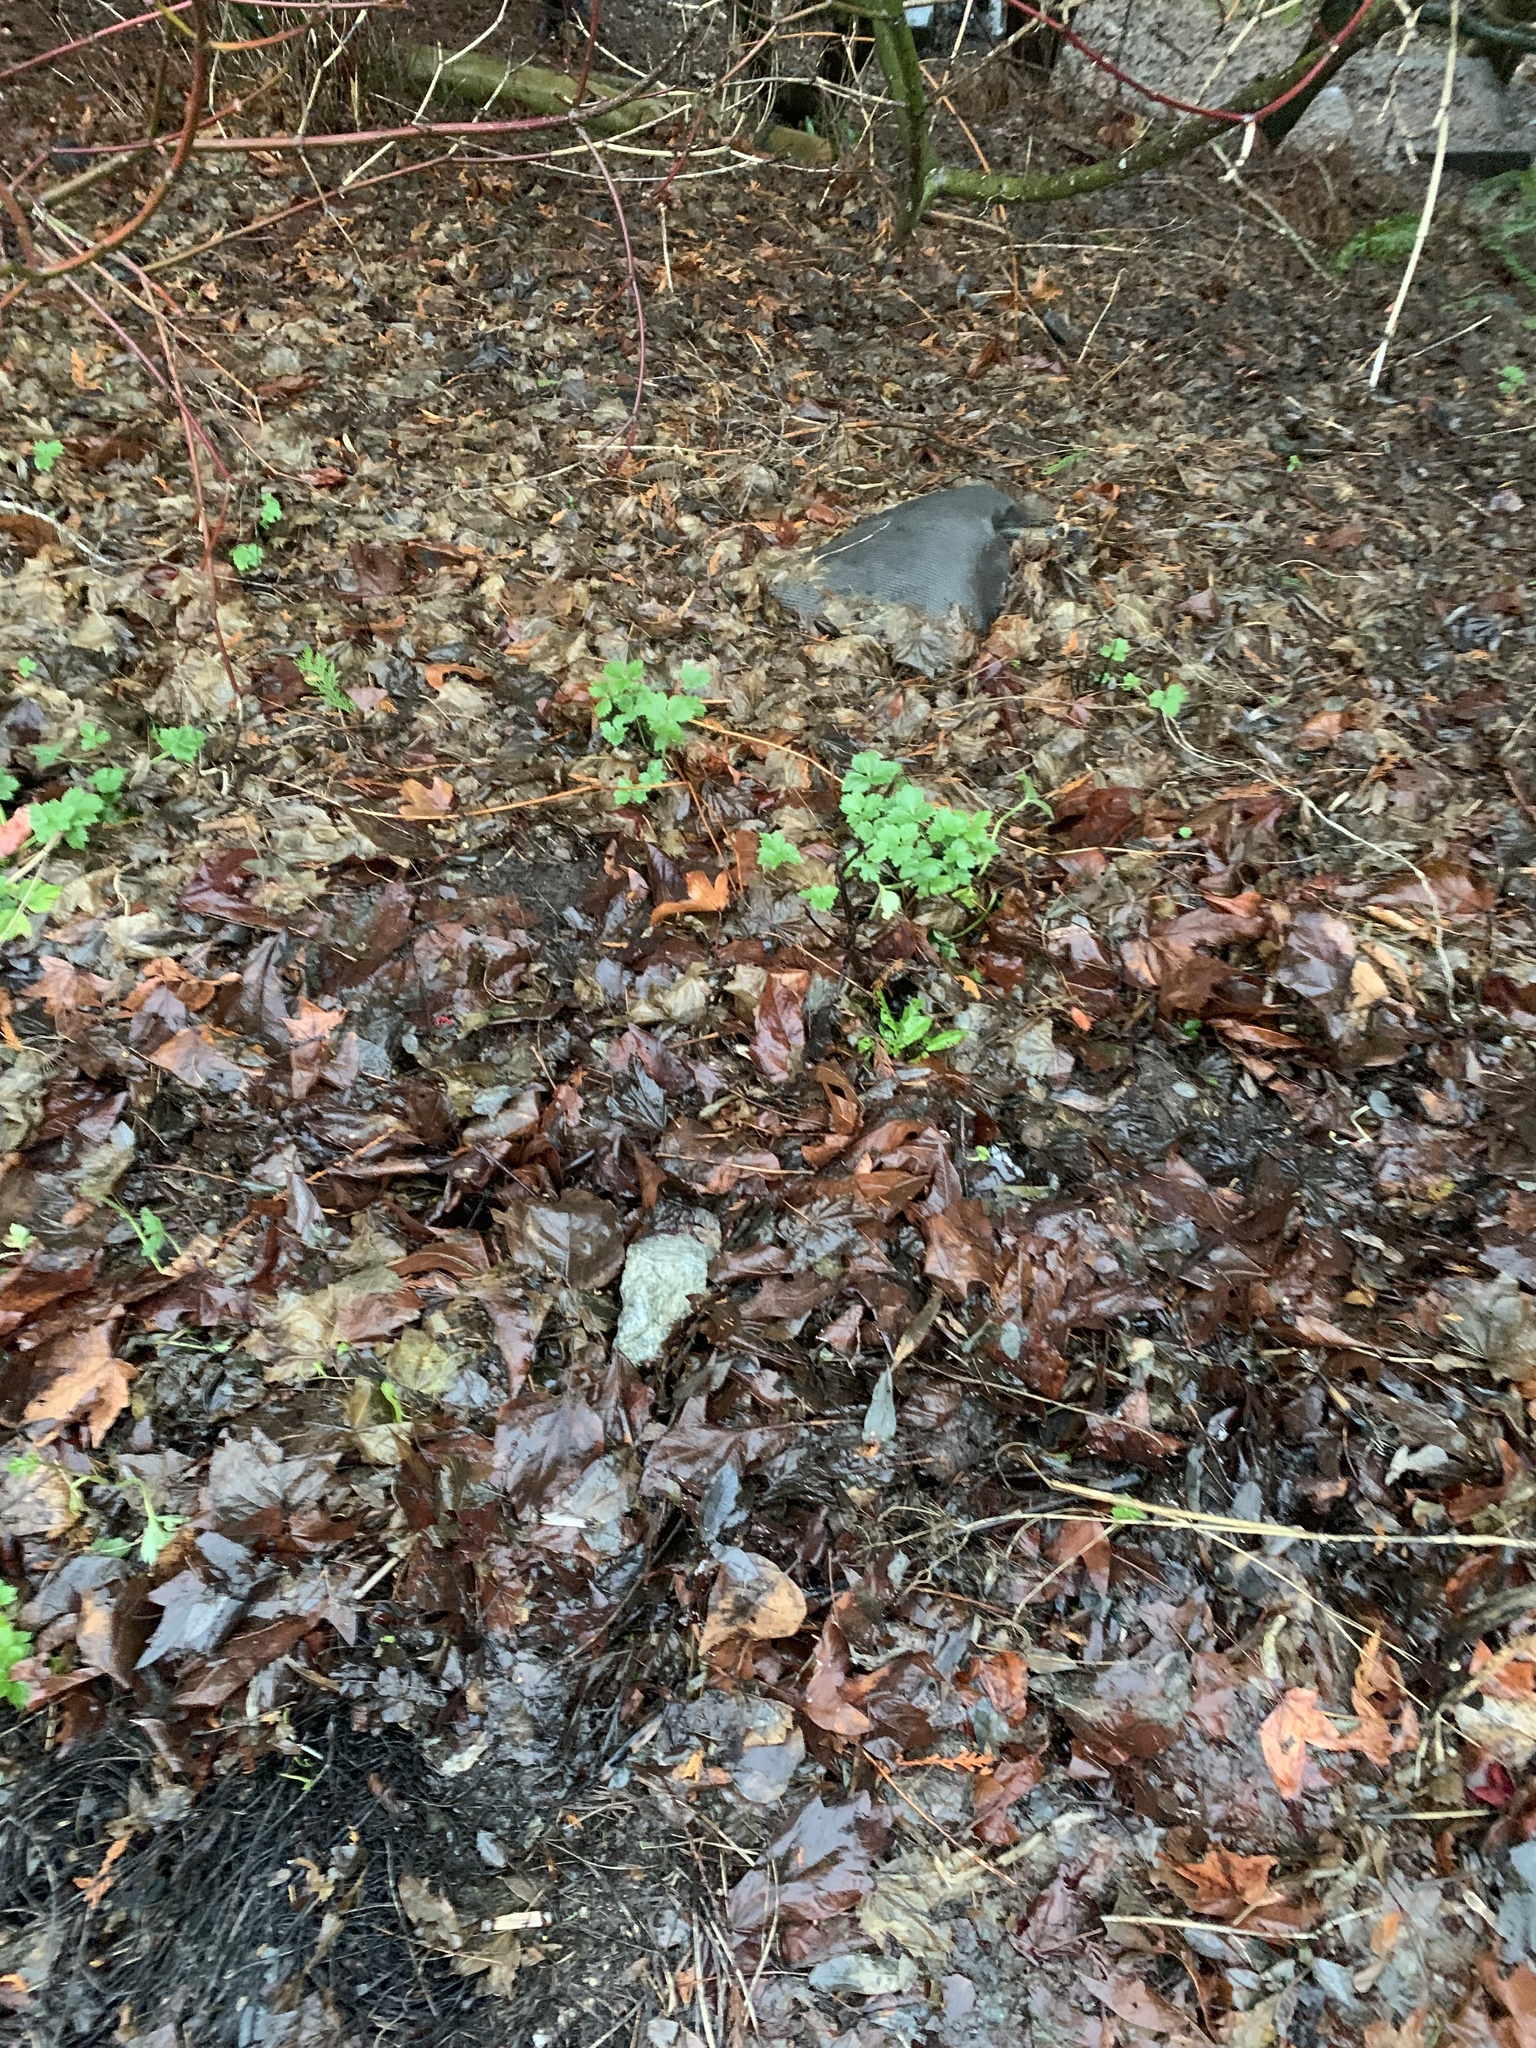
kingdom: Plantae
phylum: Tracheophyta
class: Magnoliopsida
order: Apiales
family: Apiaceae
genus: Conium
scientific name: Conium maculatum
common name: Hemlock
